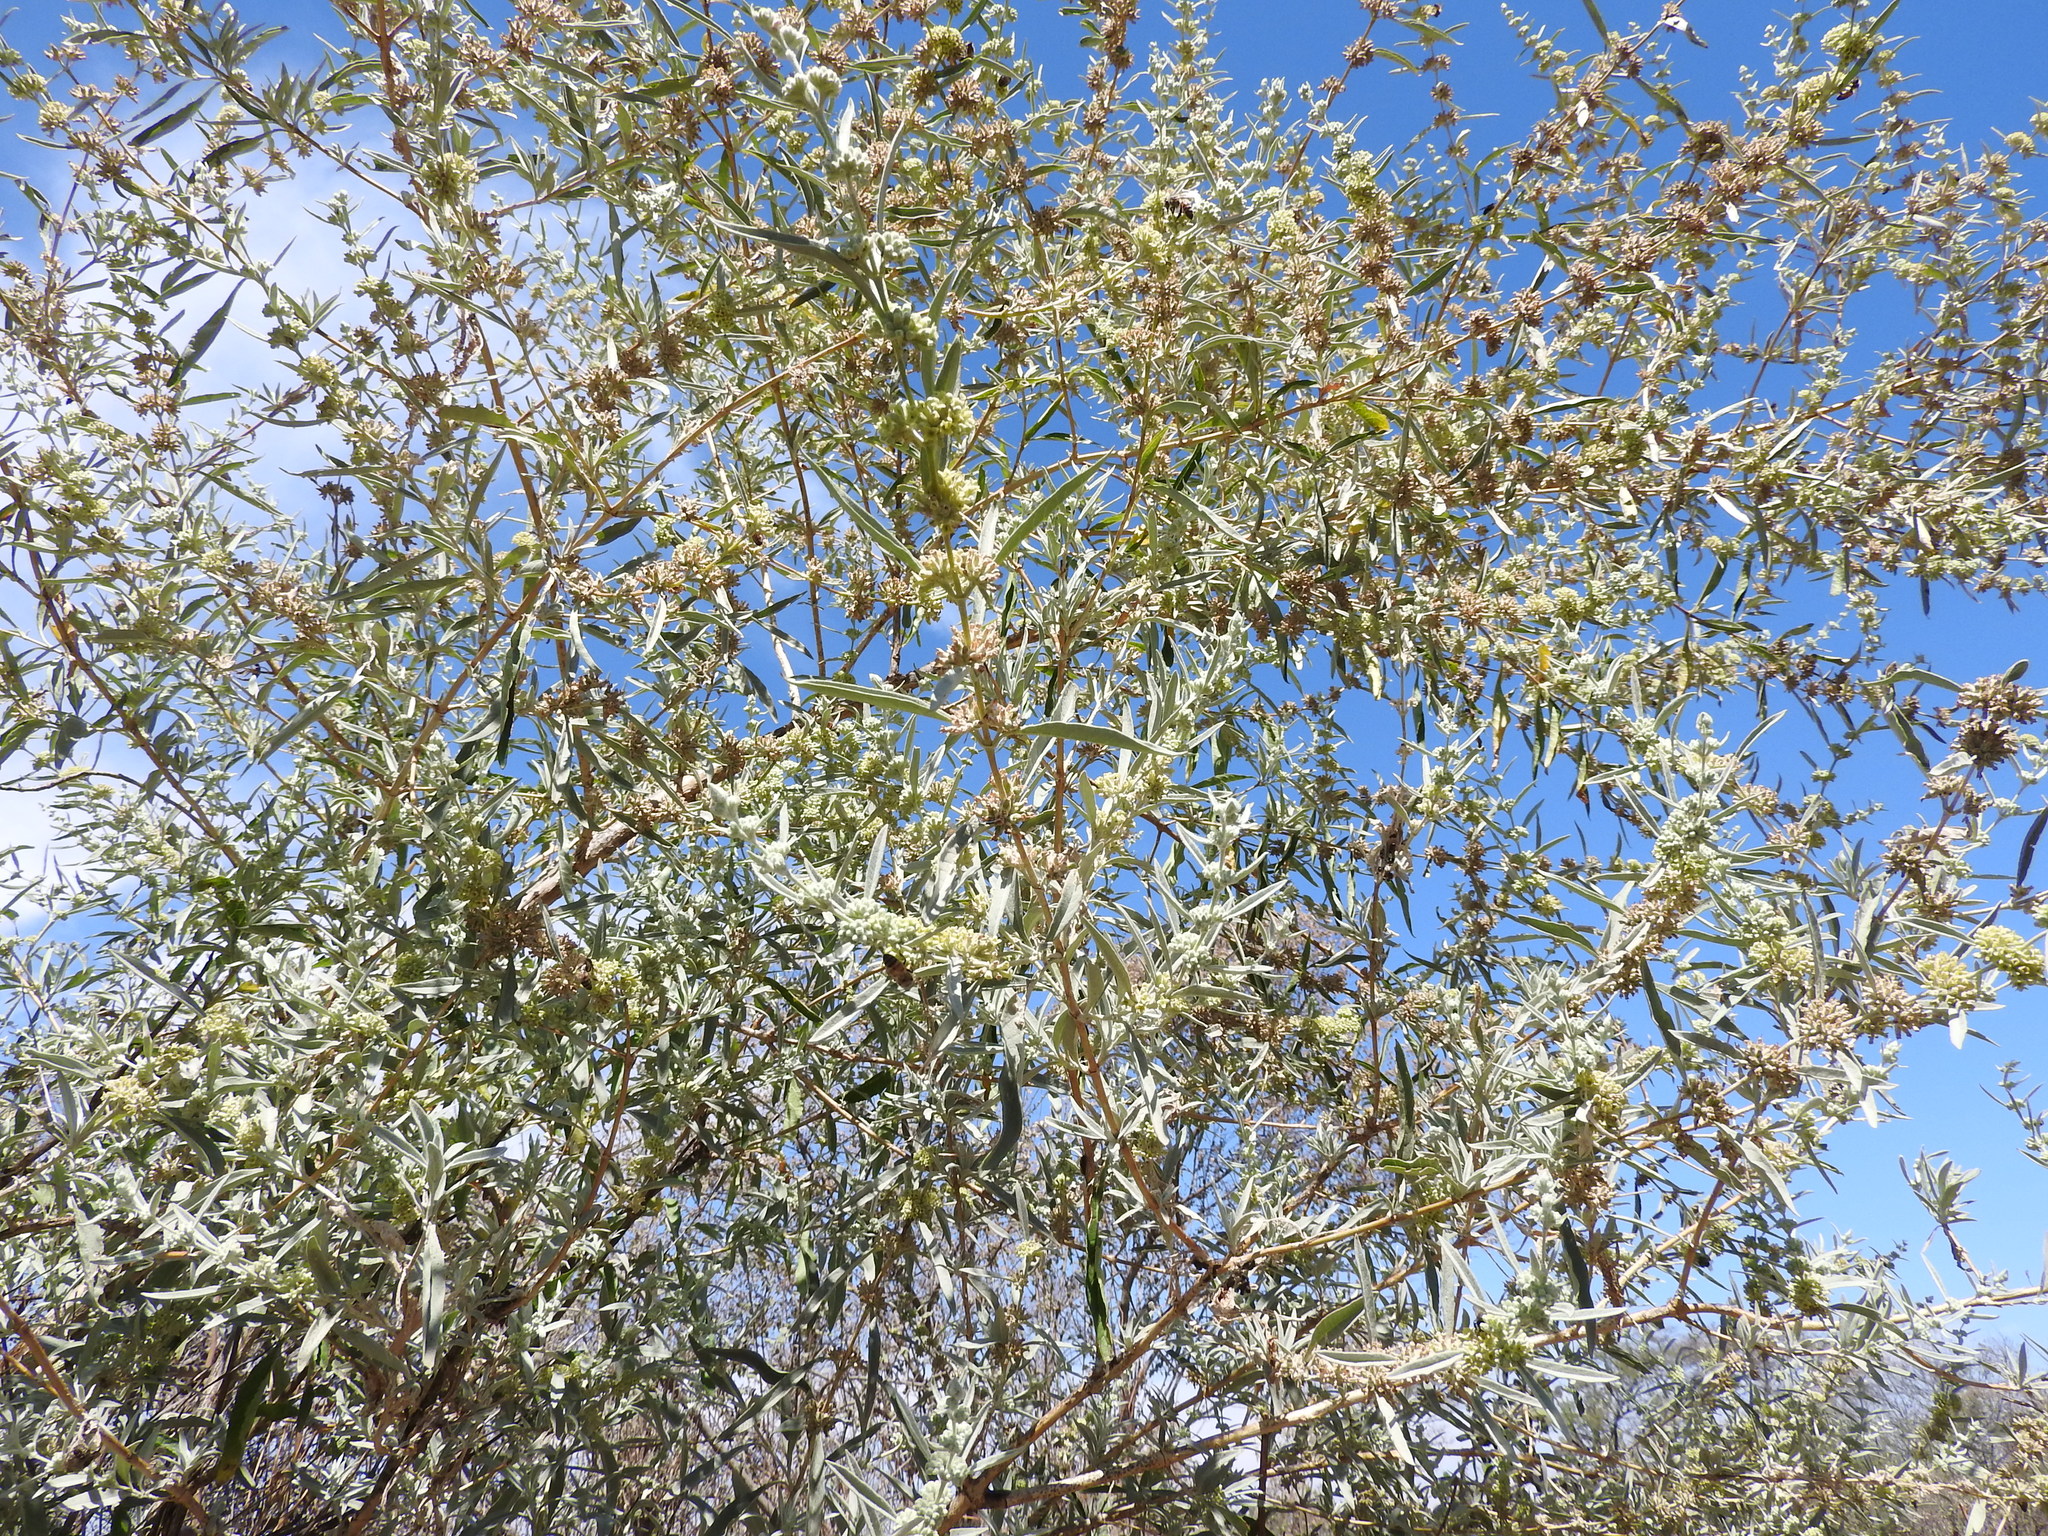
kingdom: Plantae
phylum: Tracheophyta
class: Magnoliopsida
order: Lamiales
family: Scrophulariaceae
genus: Buddleja
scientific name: Buddleja sessiliflora
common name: Rio grande butterfly-bush
